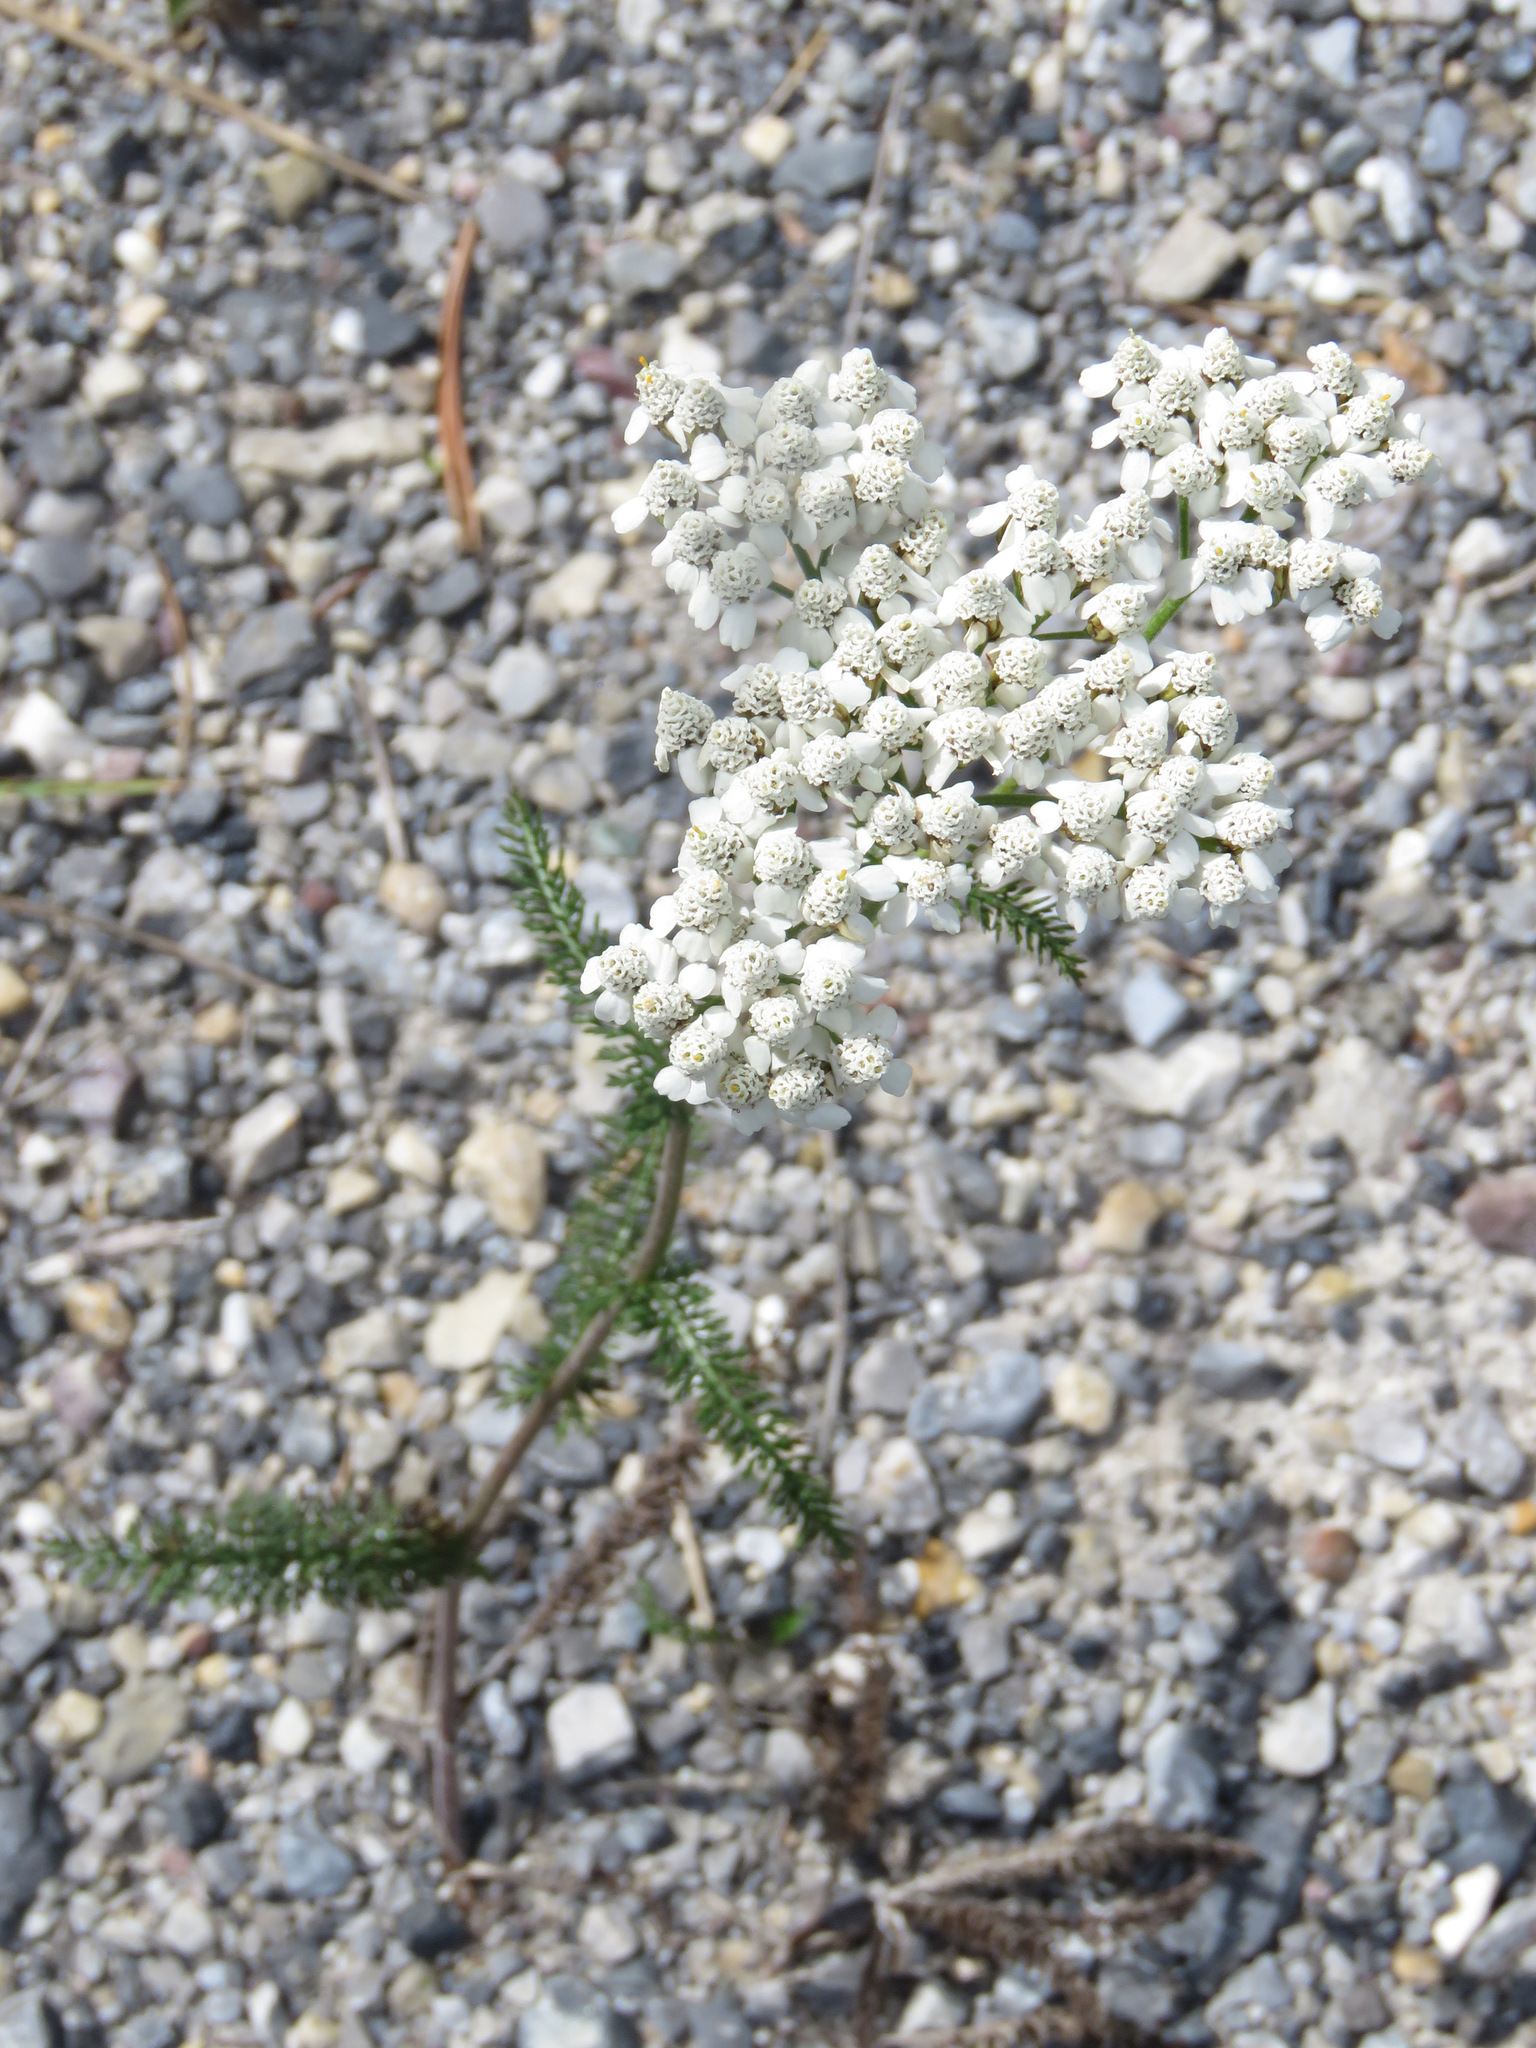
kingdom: Plantae
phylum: Tracheophyta
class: Magnoliopsida
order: Asterales
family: Asteraceae
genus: Achillea
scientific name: Achillea millefolium
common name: Yarrow
